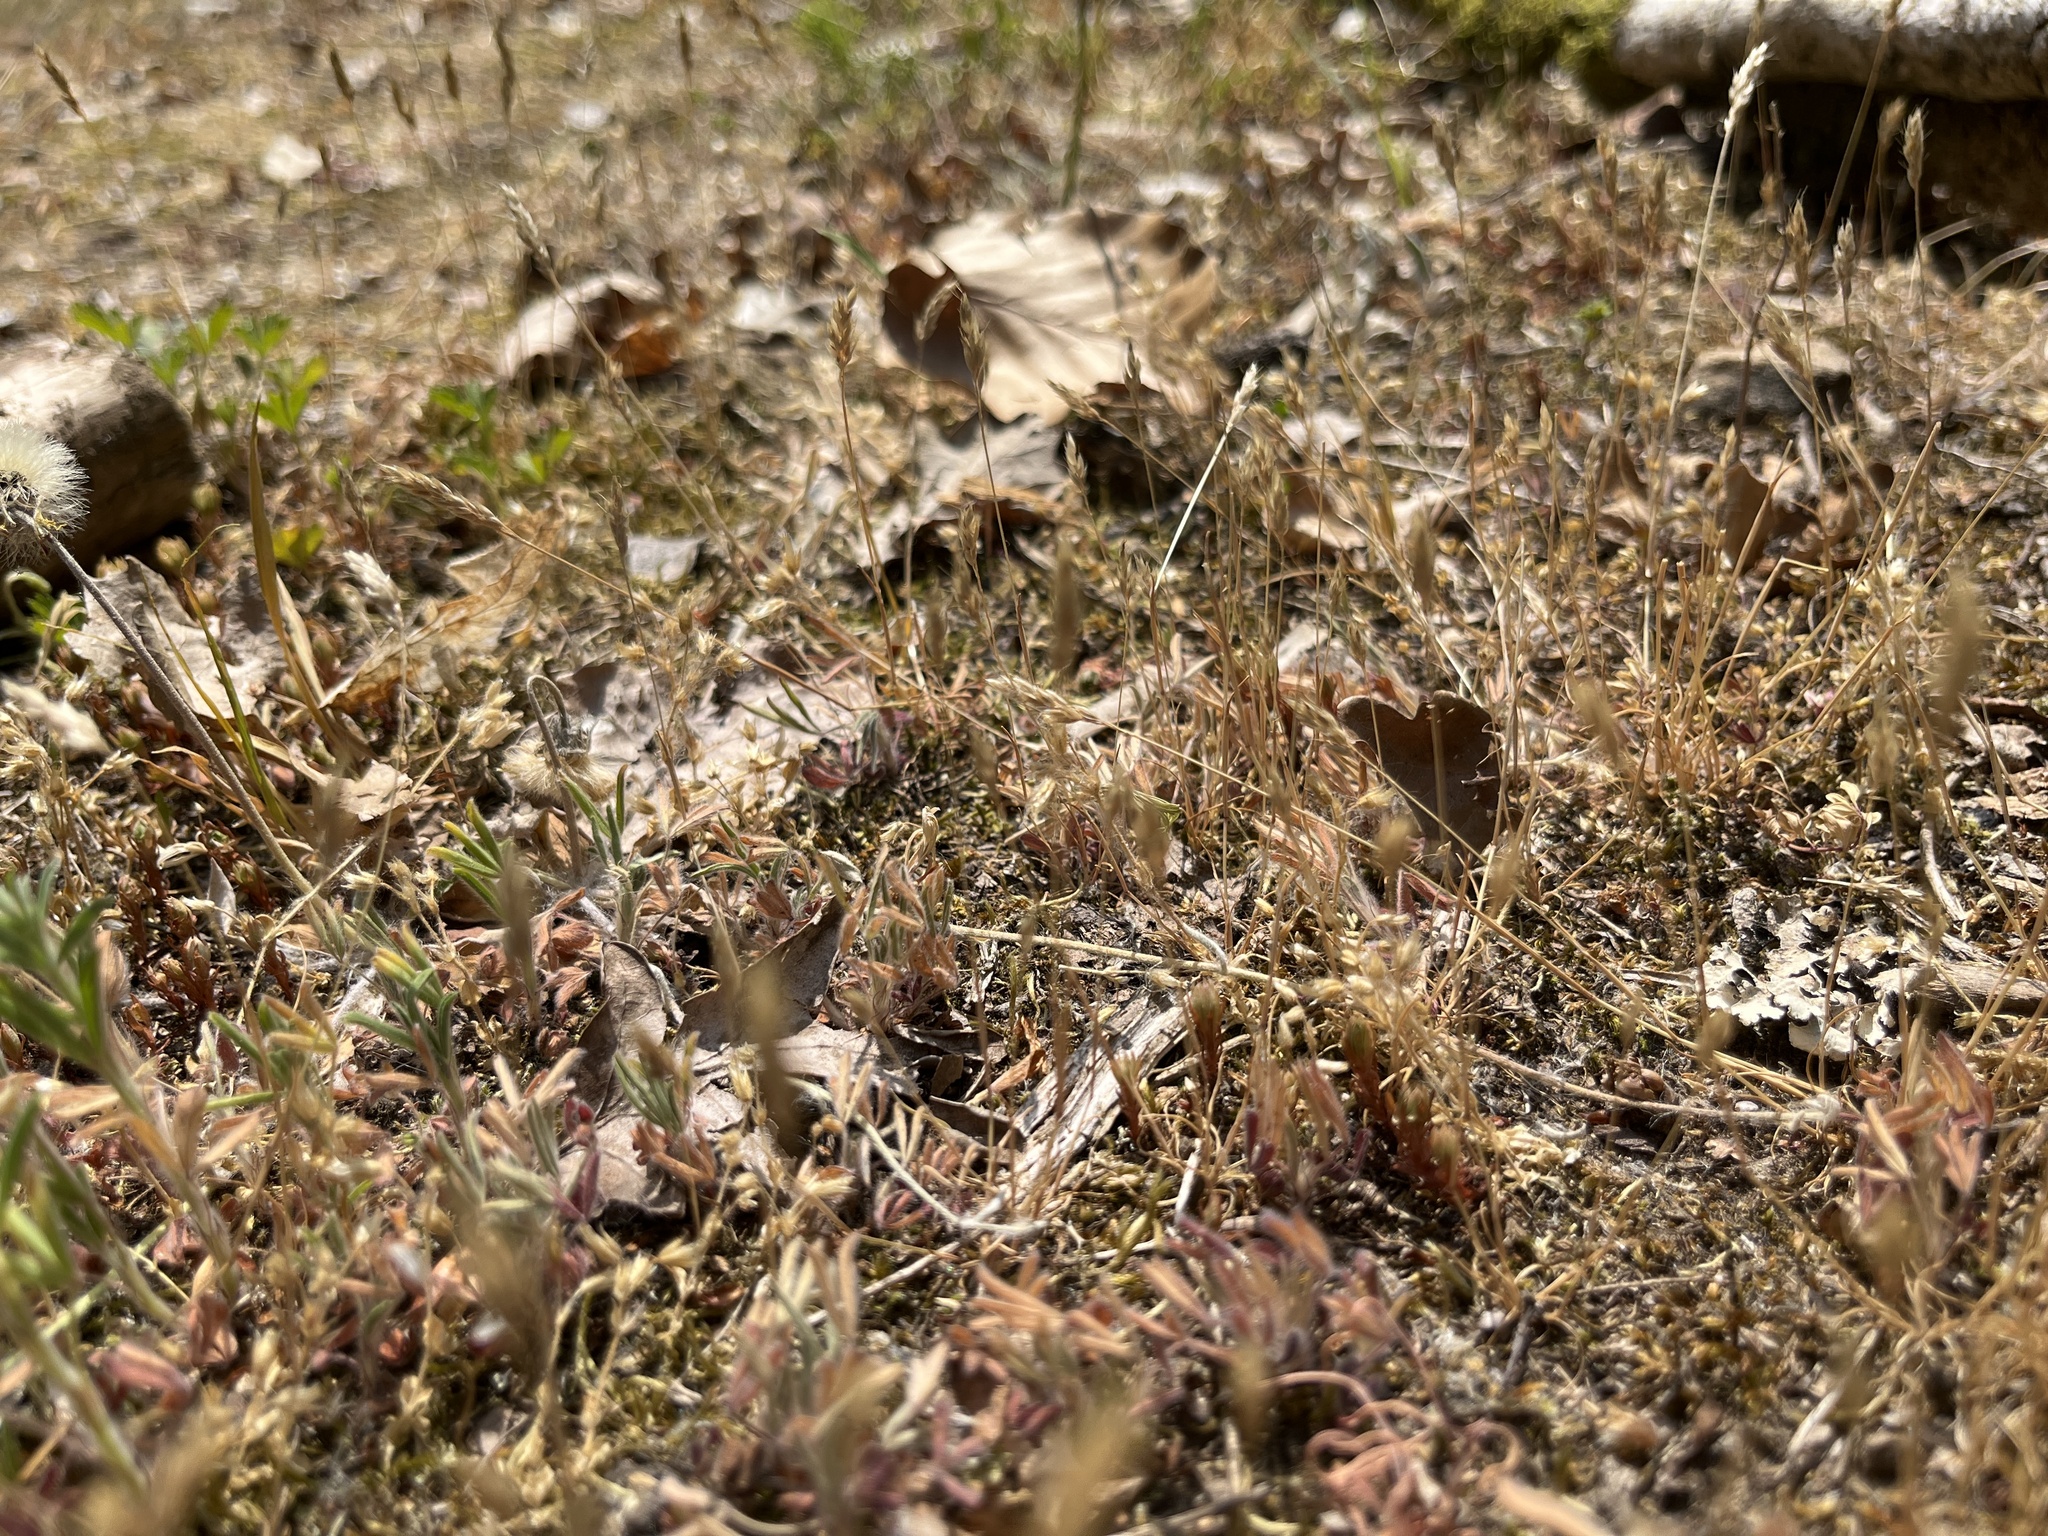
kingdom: Plantae
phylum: Tracheophyta
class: Liliopsida
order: Poales
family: Poaceae
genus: Aira
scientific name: Aira praecox
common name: Early hair-grass
